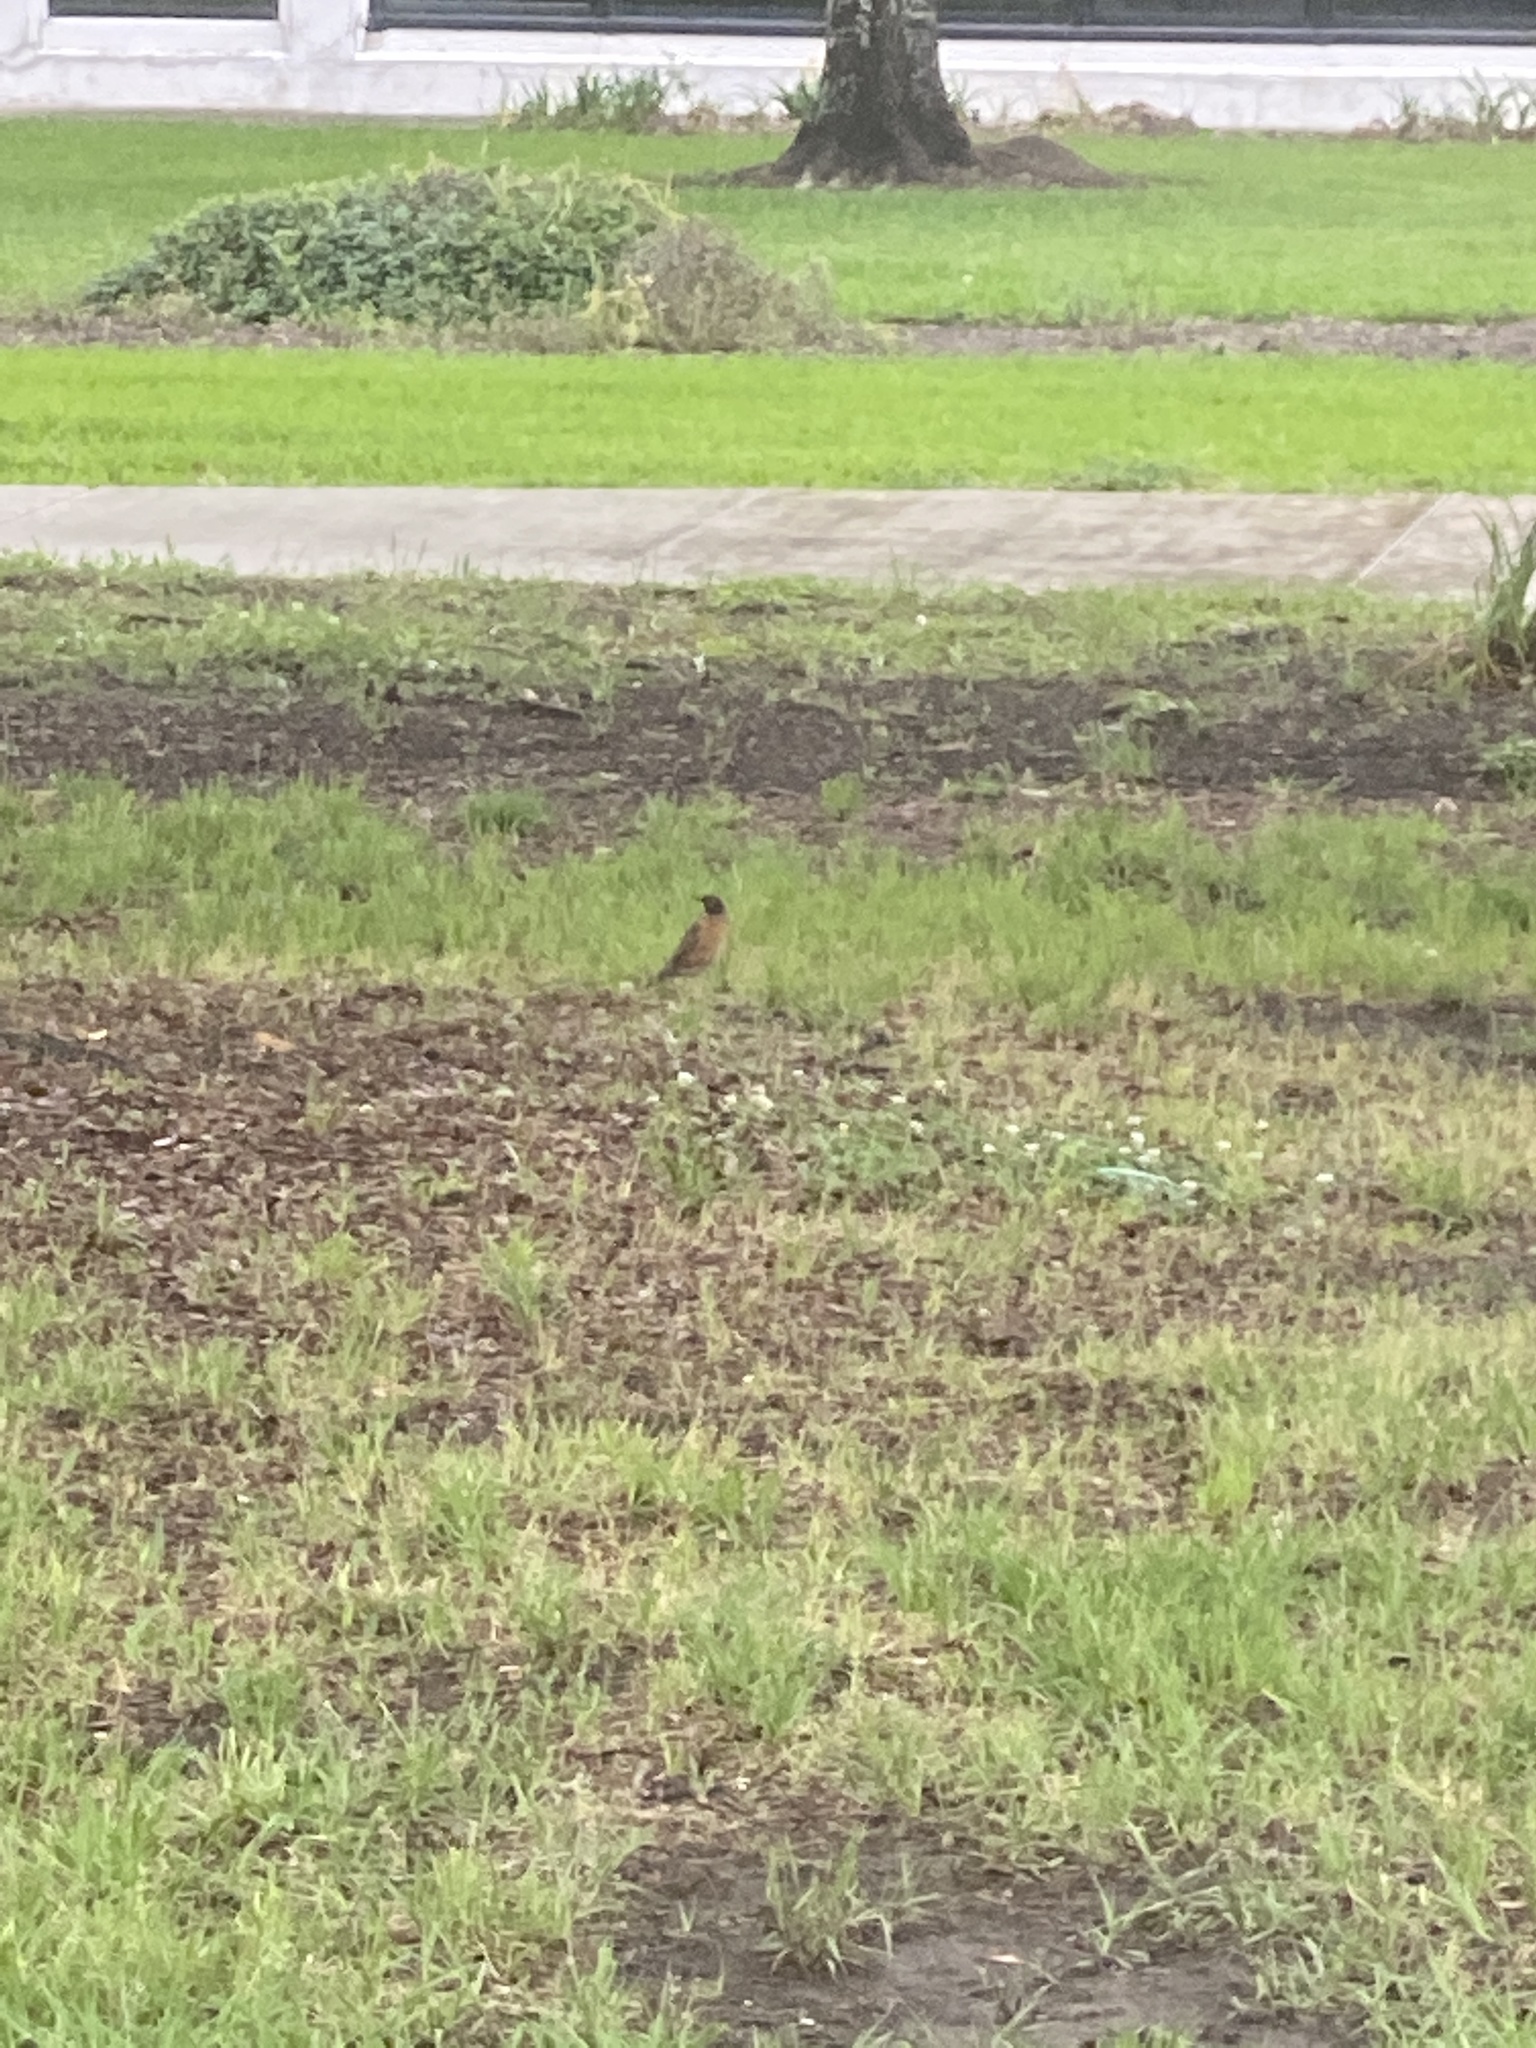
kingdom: Animalia
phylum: Chordata
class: Aves
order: Passeriformes
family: Turdidae
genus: Turdus
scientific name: Turdus migratorius
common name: American robin
